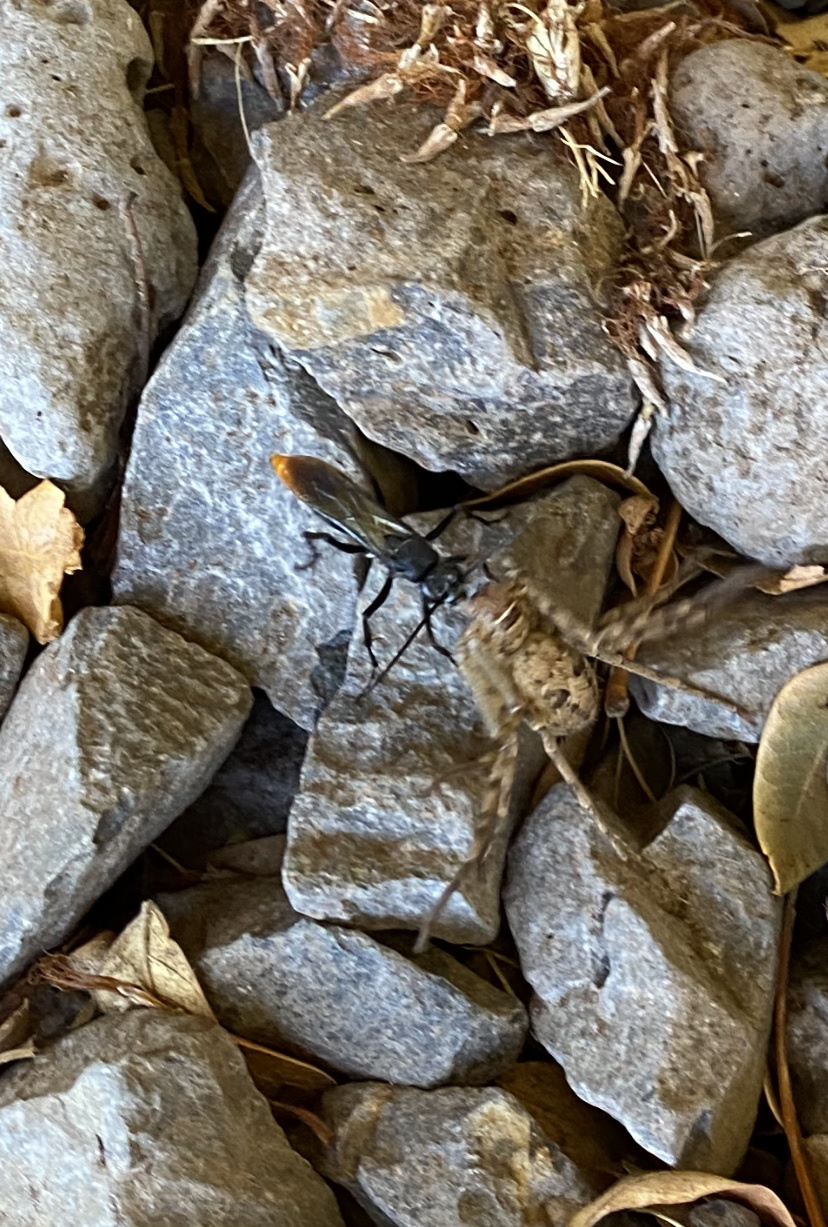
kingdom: Animalia
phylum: Arthropoda
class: Insecta
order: Hymenoptera
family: Pompilidae
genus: Tachypompilus
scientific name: Tachypompilus analis
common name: Spider wasp
